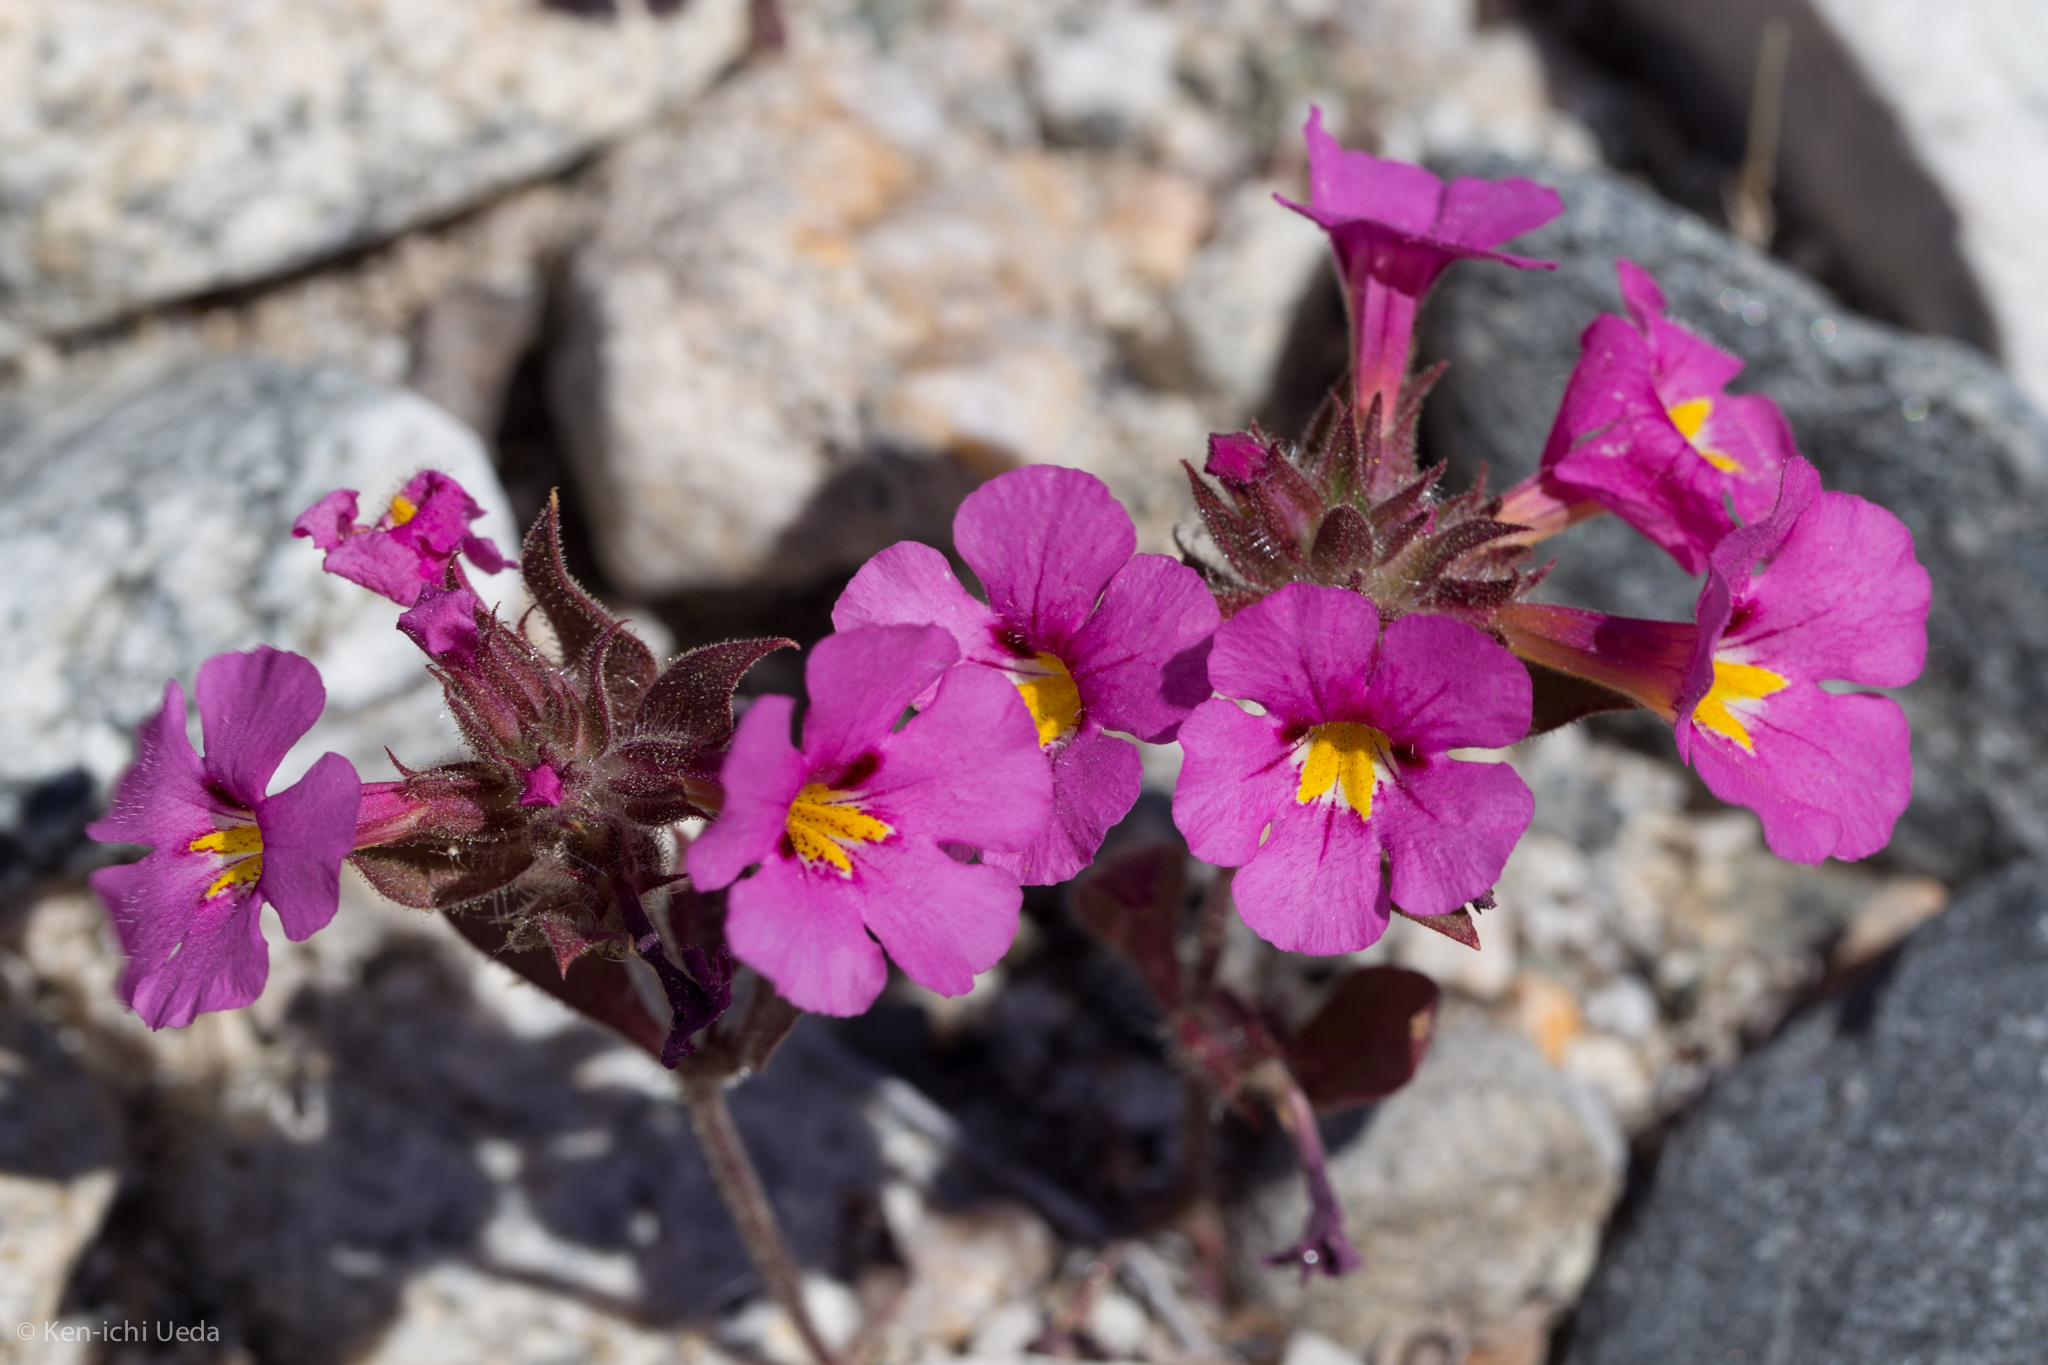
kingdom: Plantae
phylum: Tracheophyta
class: Magnoliopsida
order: Lamiales
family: Phrymaceae
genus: Diplacus
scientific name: Diplacus bigelovii
